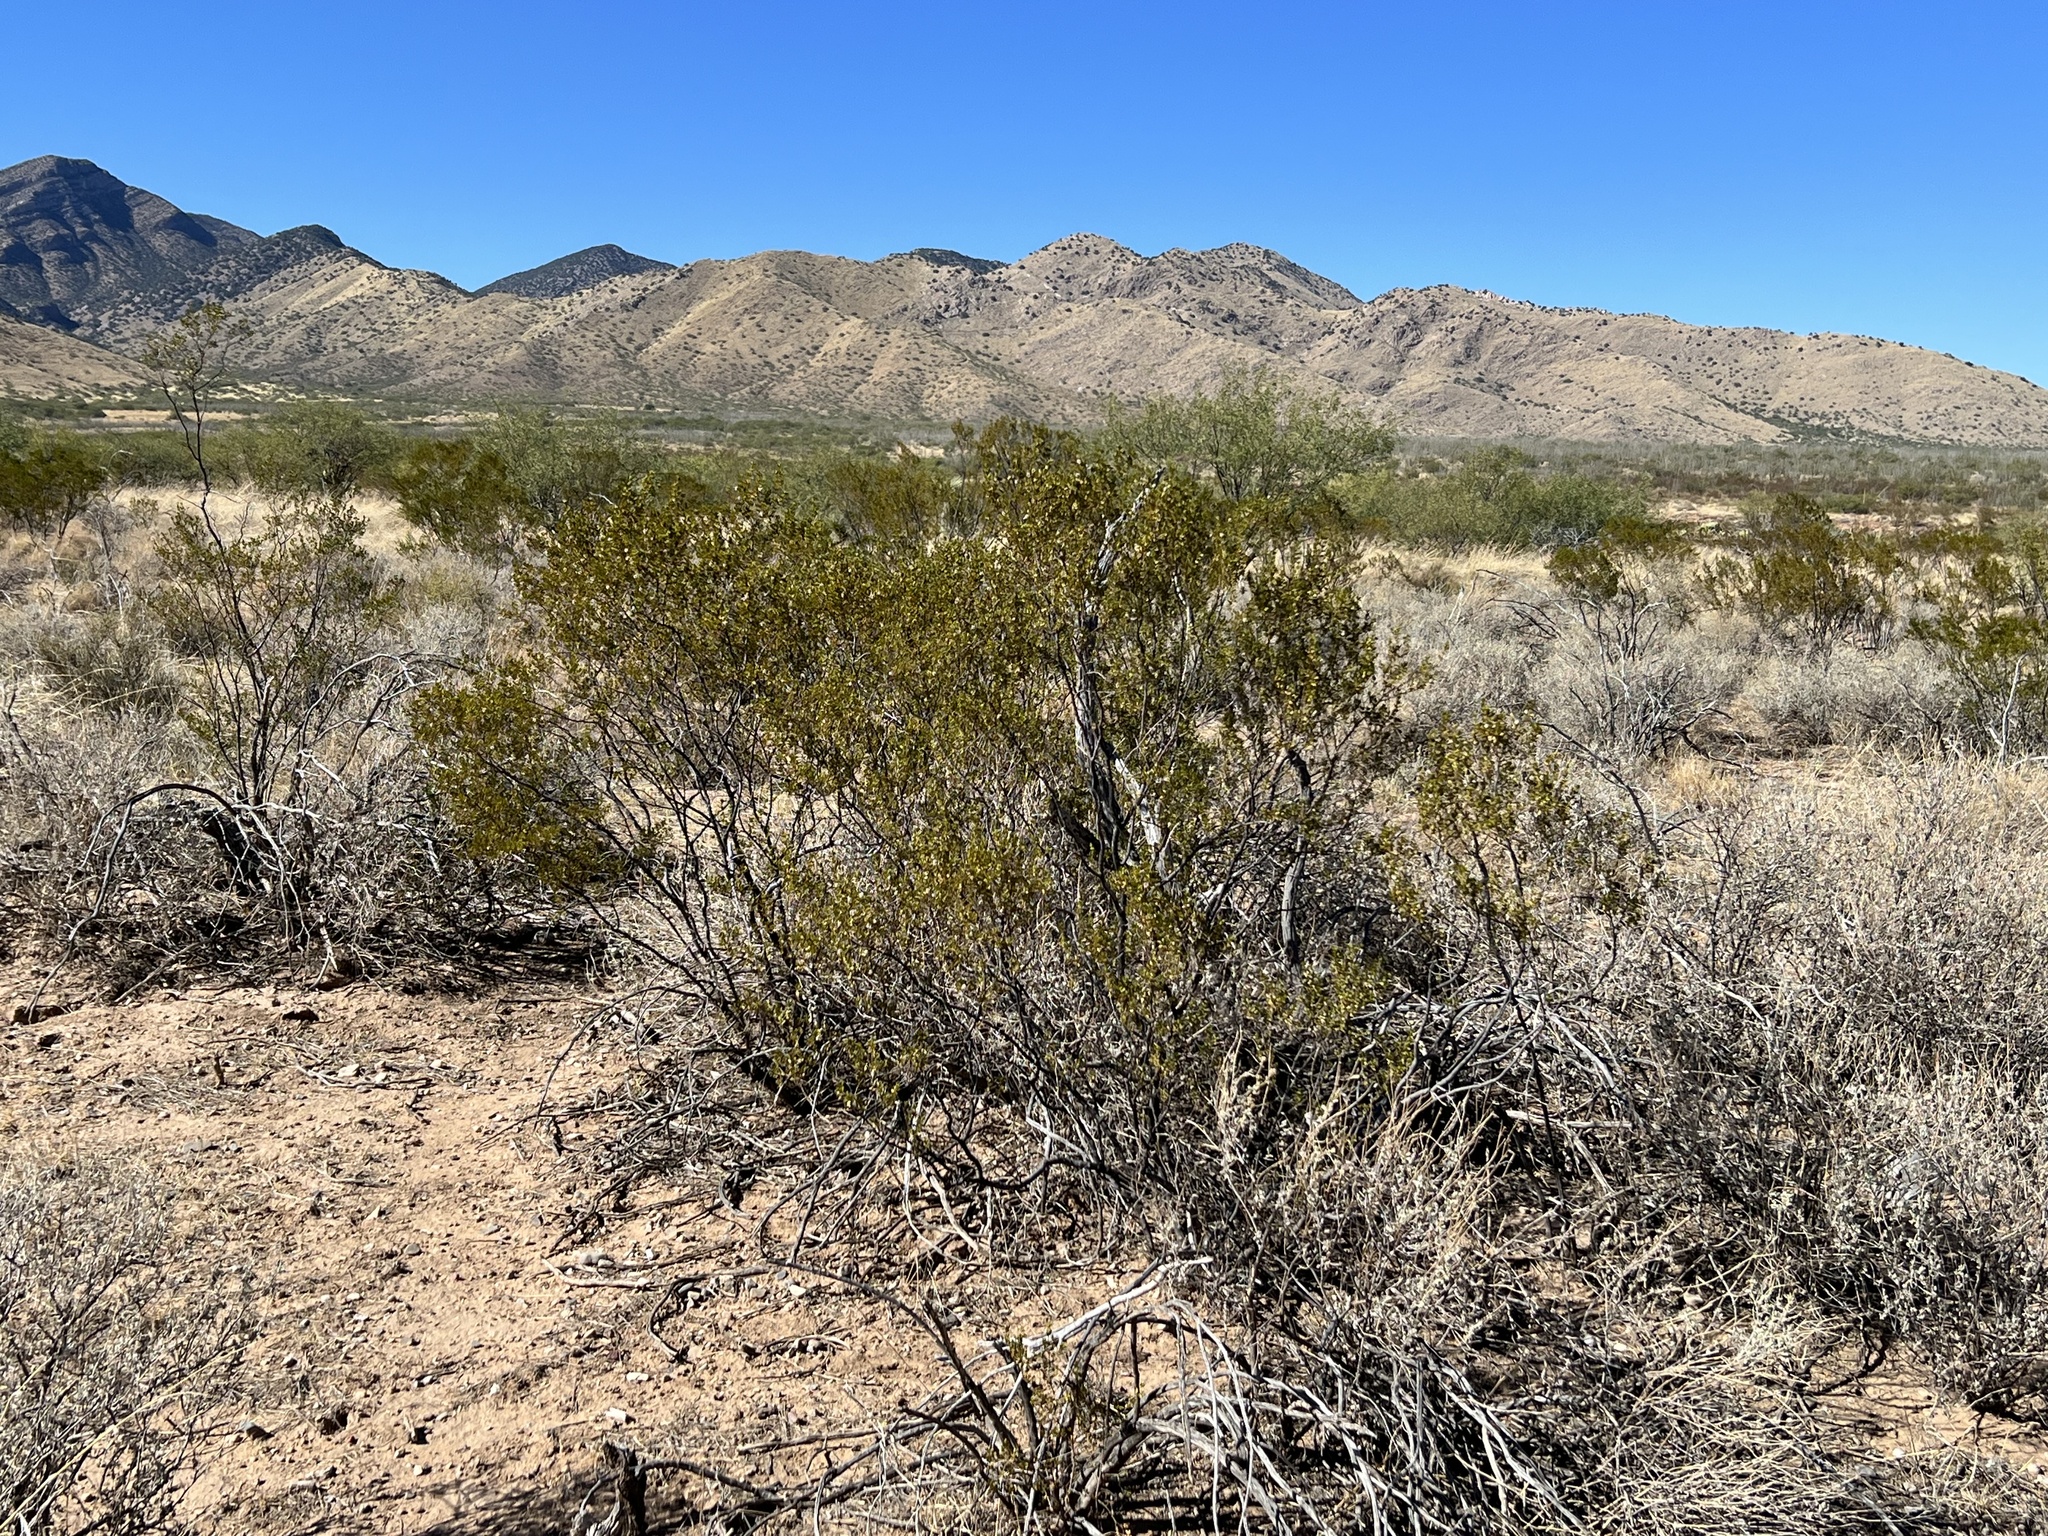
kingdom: Plantae
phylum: Tracheophyta
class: Magnoliopsida
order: Zygophyllales
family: Zygophyllaceae
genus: Larrea
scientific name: Larrea tridentata
